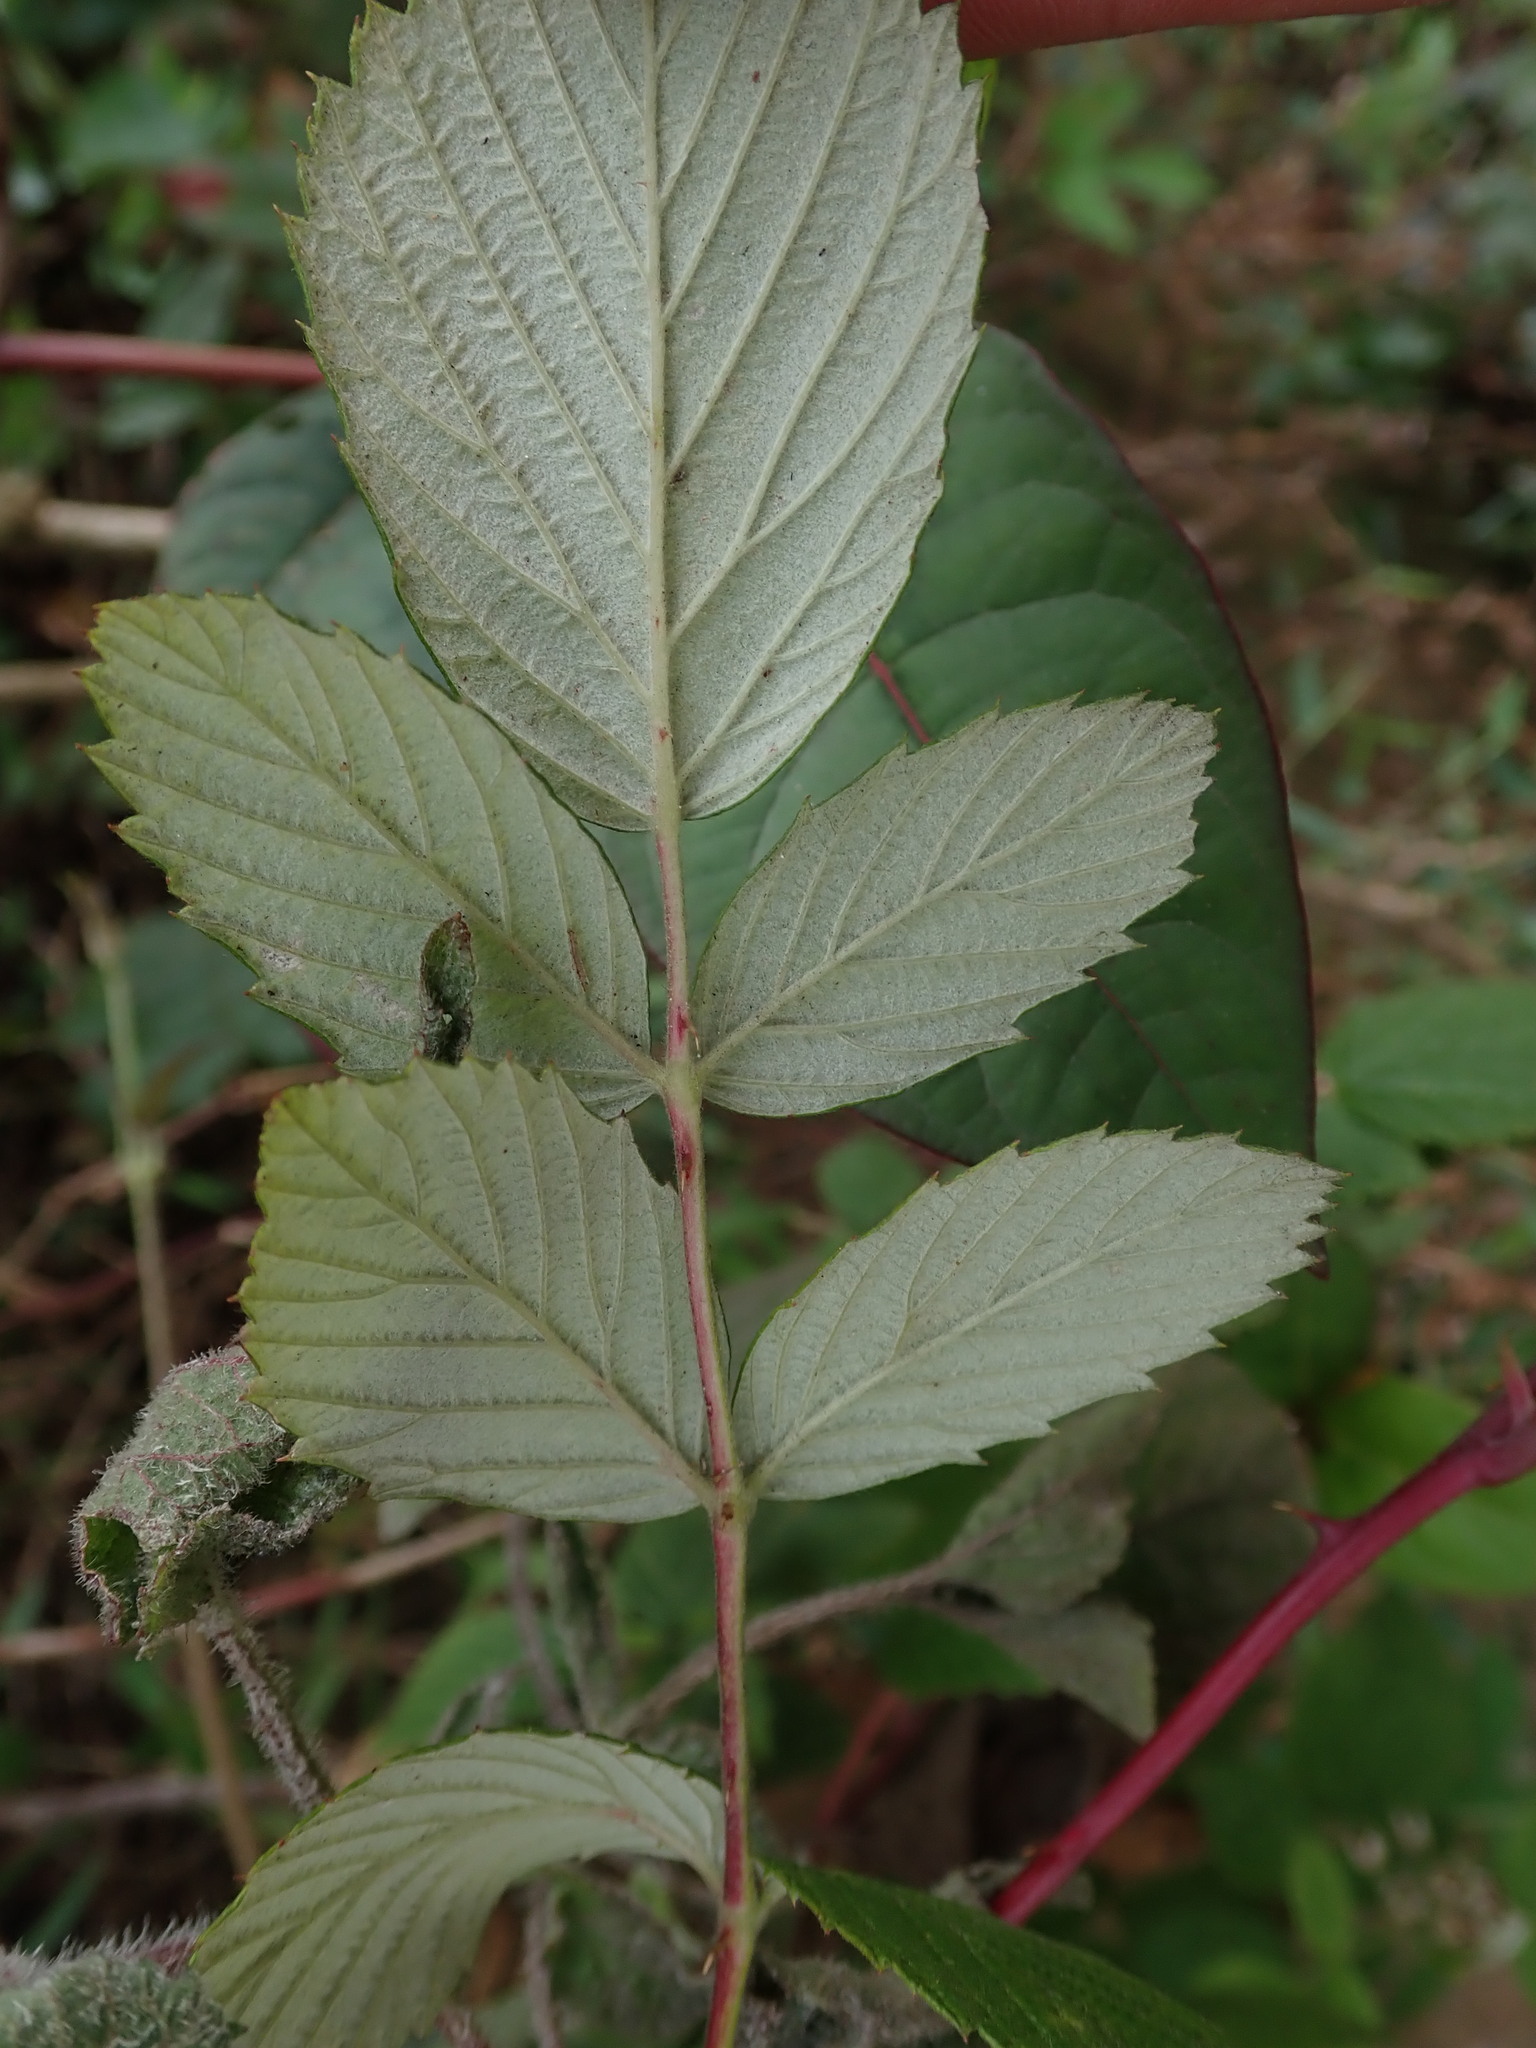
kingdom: Plantae
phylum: Tracheophyta
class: Magnoliopsida
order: Rosales
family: Rosaceae
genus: Rubus
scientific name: Rubus niveus
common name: Snowpeaks raspberry
